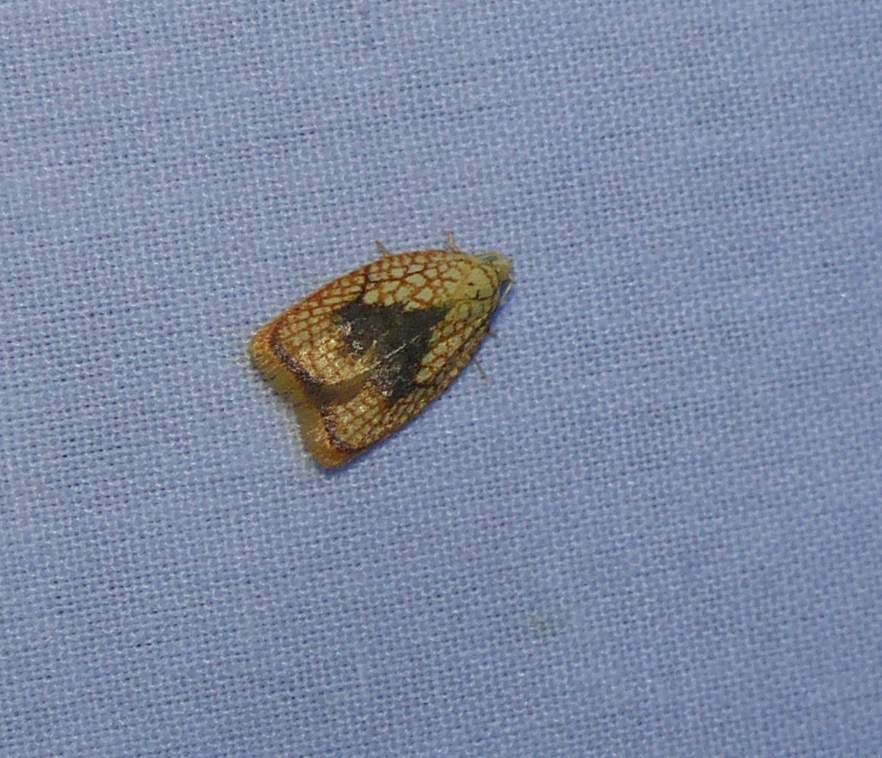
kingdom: Animalia
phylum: Arthropoda
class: Insecta
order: Lepidoptera
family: Tortricidae
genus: Acleris
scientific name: Acleris forsskaleana
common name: Maple button
